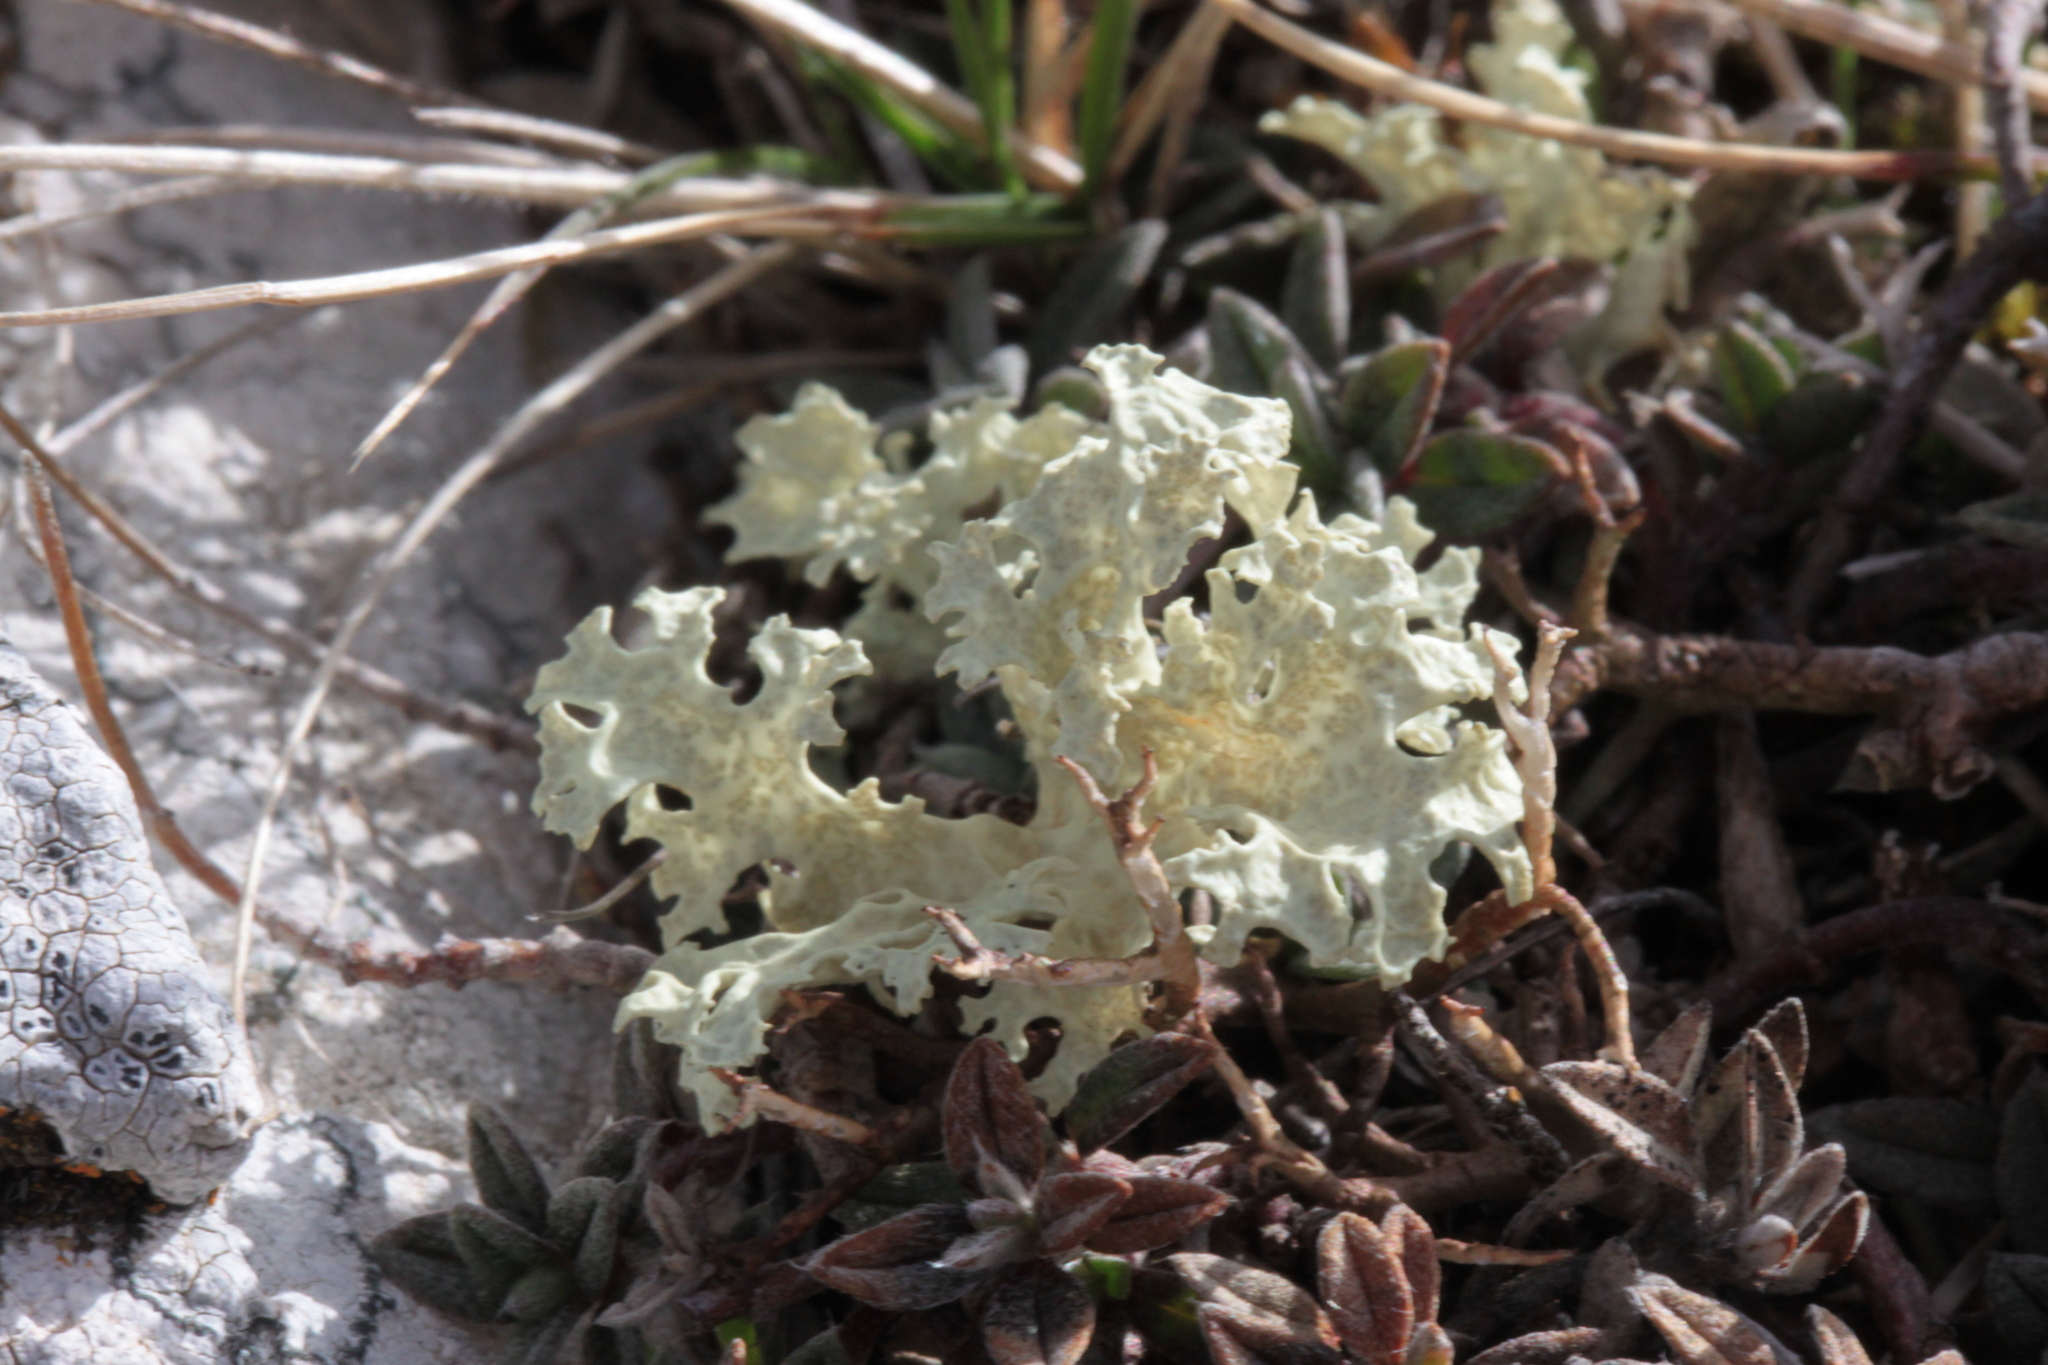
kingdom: Fungi
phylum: Ascomycota
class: Lecanoromycetes
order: Lecanorales
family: Parmeliaceae
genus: Nephromopsis
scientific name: Nephromopsis nivalis
